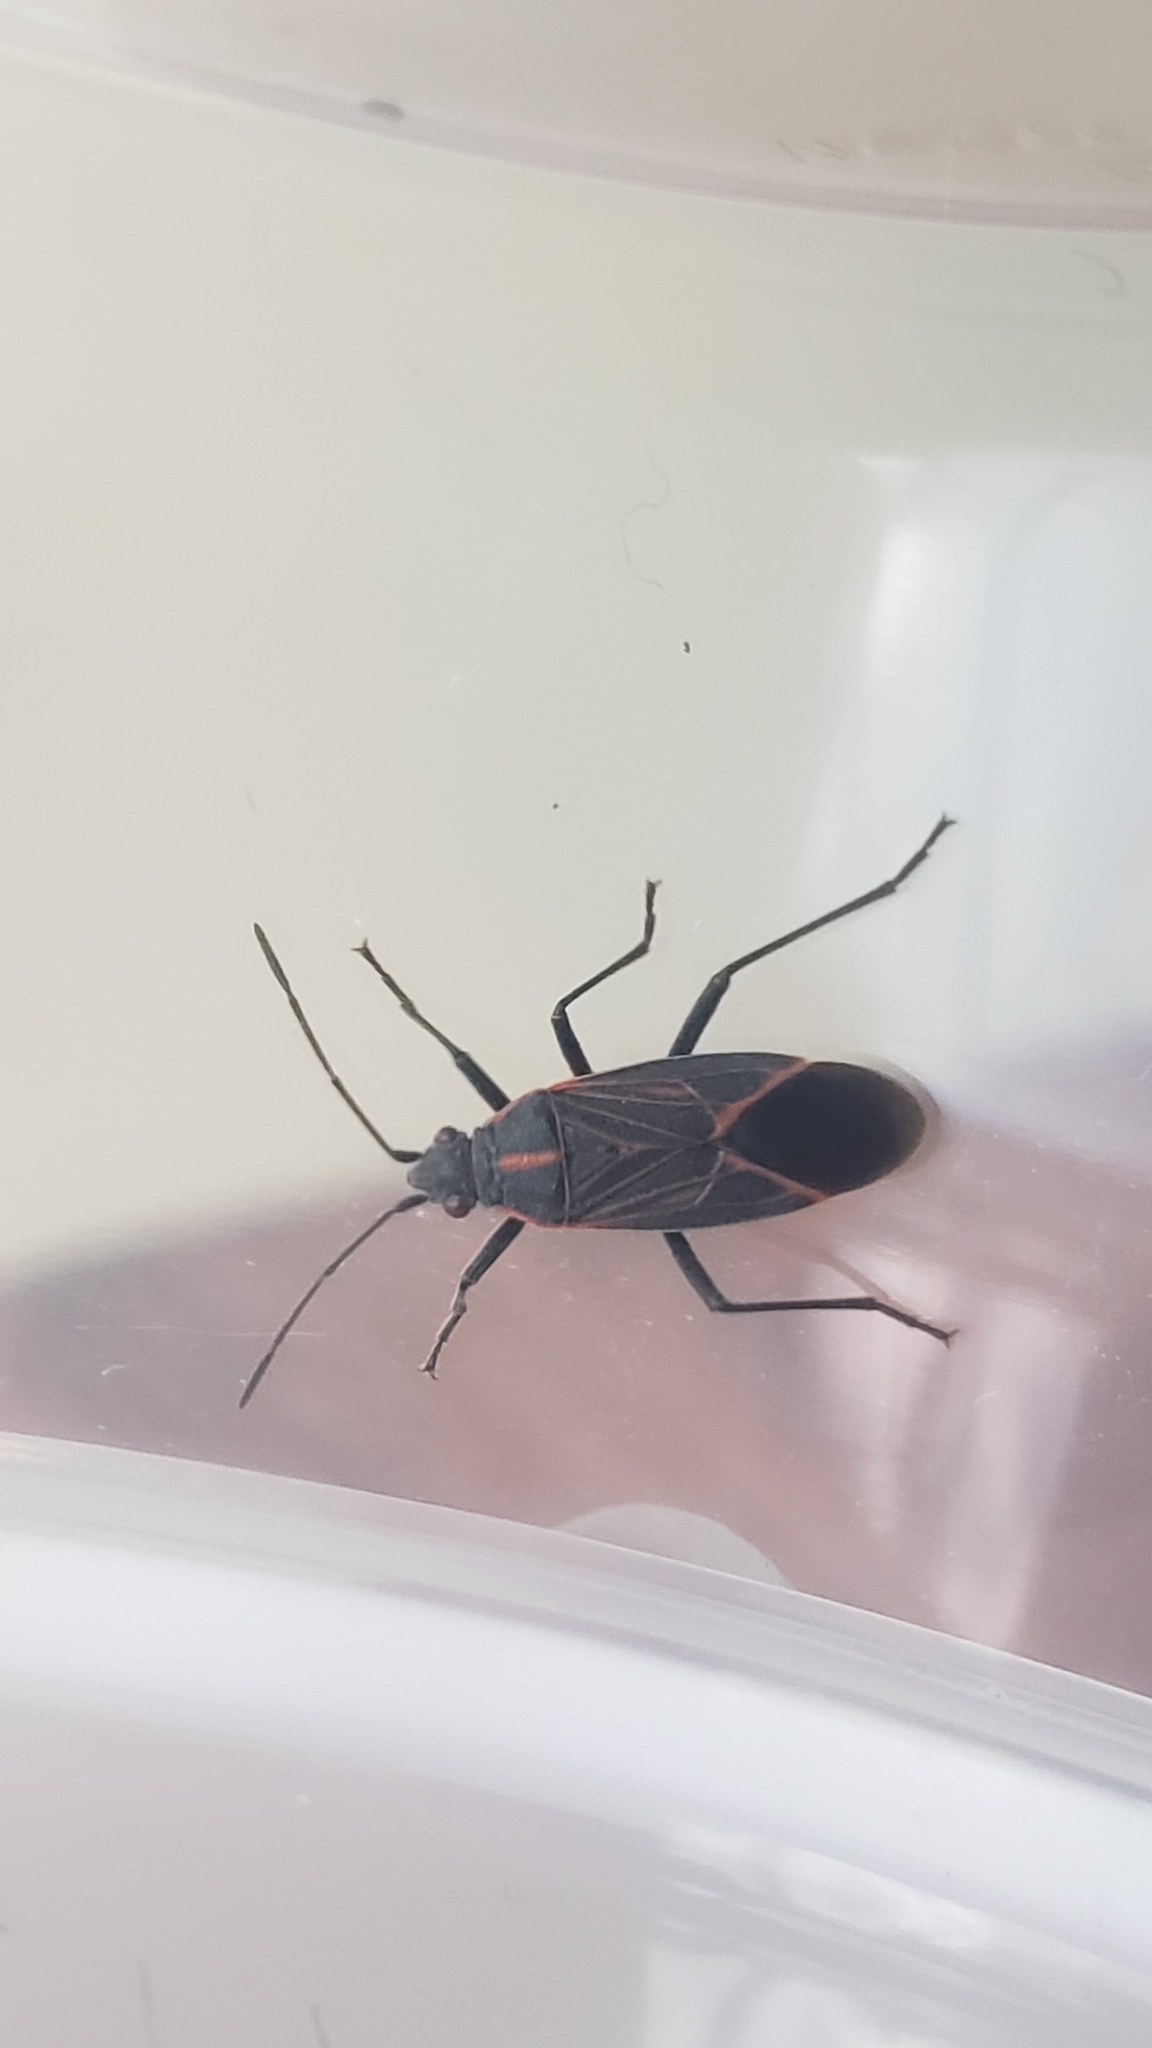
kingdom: Animalia
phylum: Arthropoda
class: Insecta
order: Hemiptera
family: Rhopalidae
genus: Boisea
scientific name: Boisea rubrolineata
